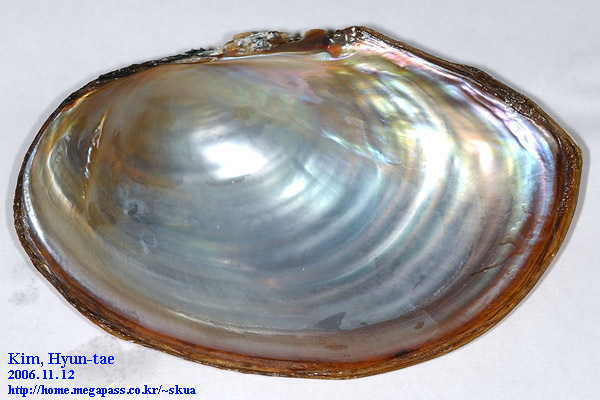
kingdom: Animalia
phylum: Mollusca
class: Bivalvia
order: Unionida
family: Unionidae
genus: Sinanodonta
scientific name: Sinanodonta lauta
